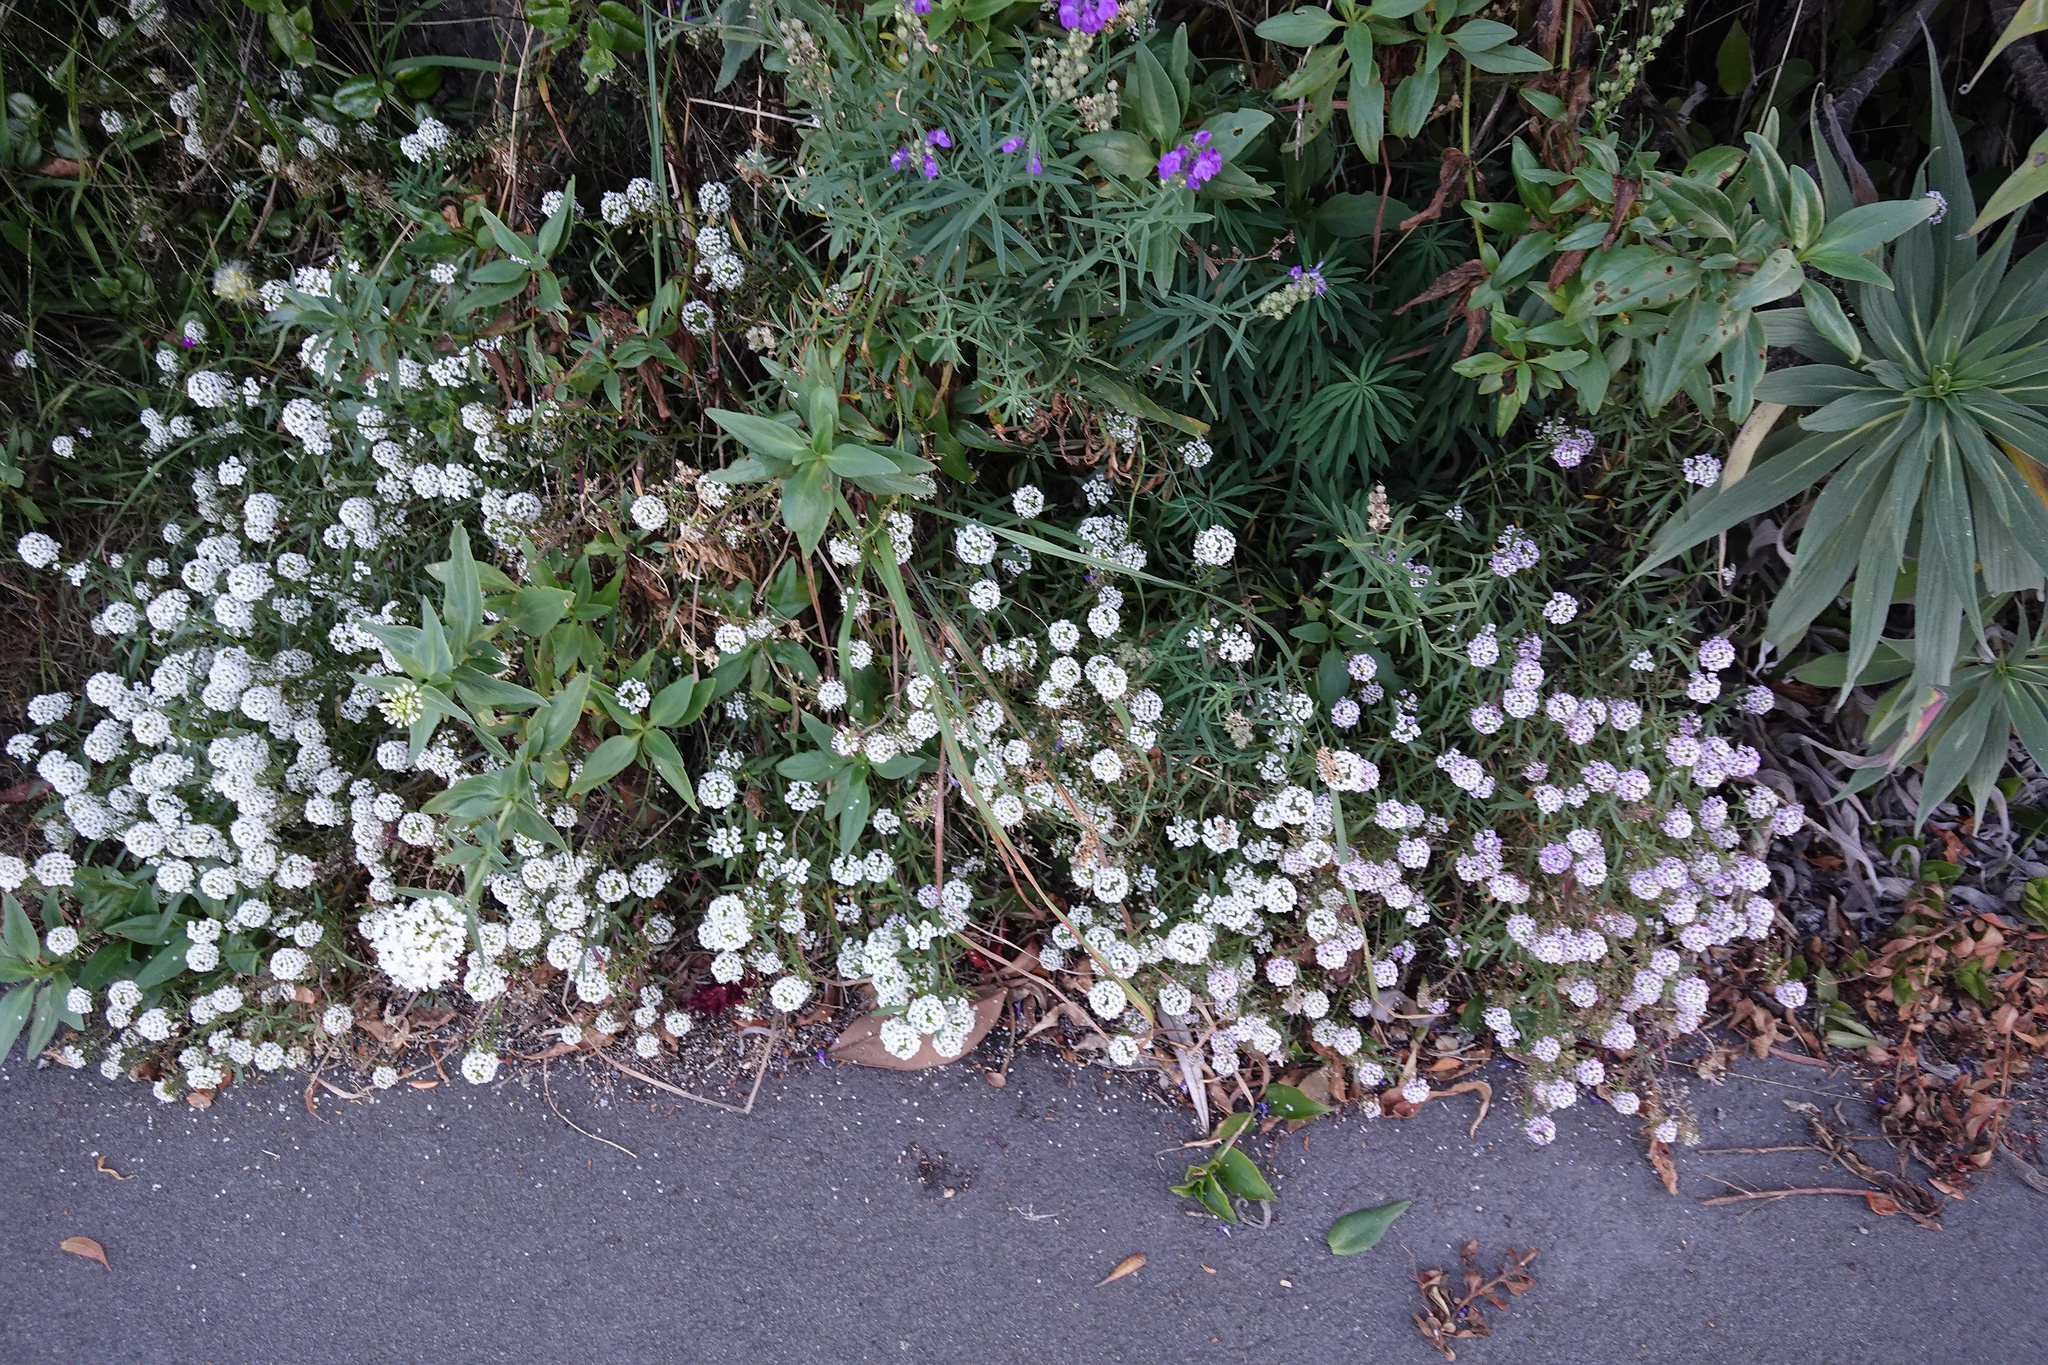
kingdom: Plantae
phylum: Tracheophyta
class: Magnoliopsida
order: Brassicales
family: Brassicaceae
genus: Lobularia
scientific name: Lobularia maritima
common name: Sweet alison
